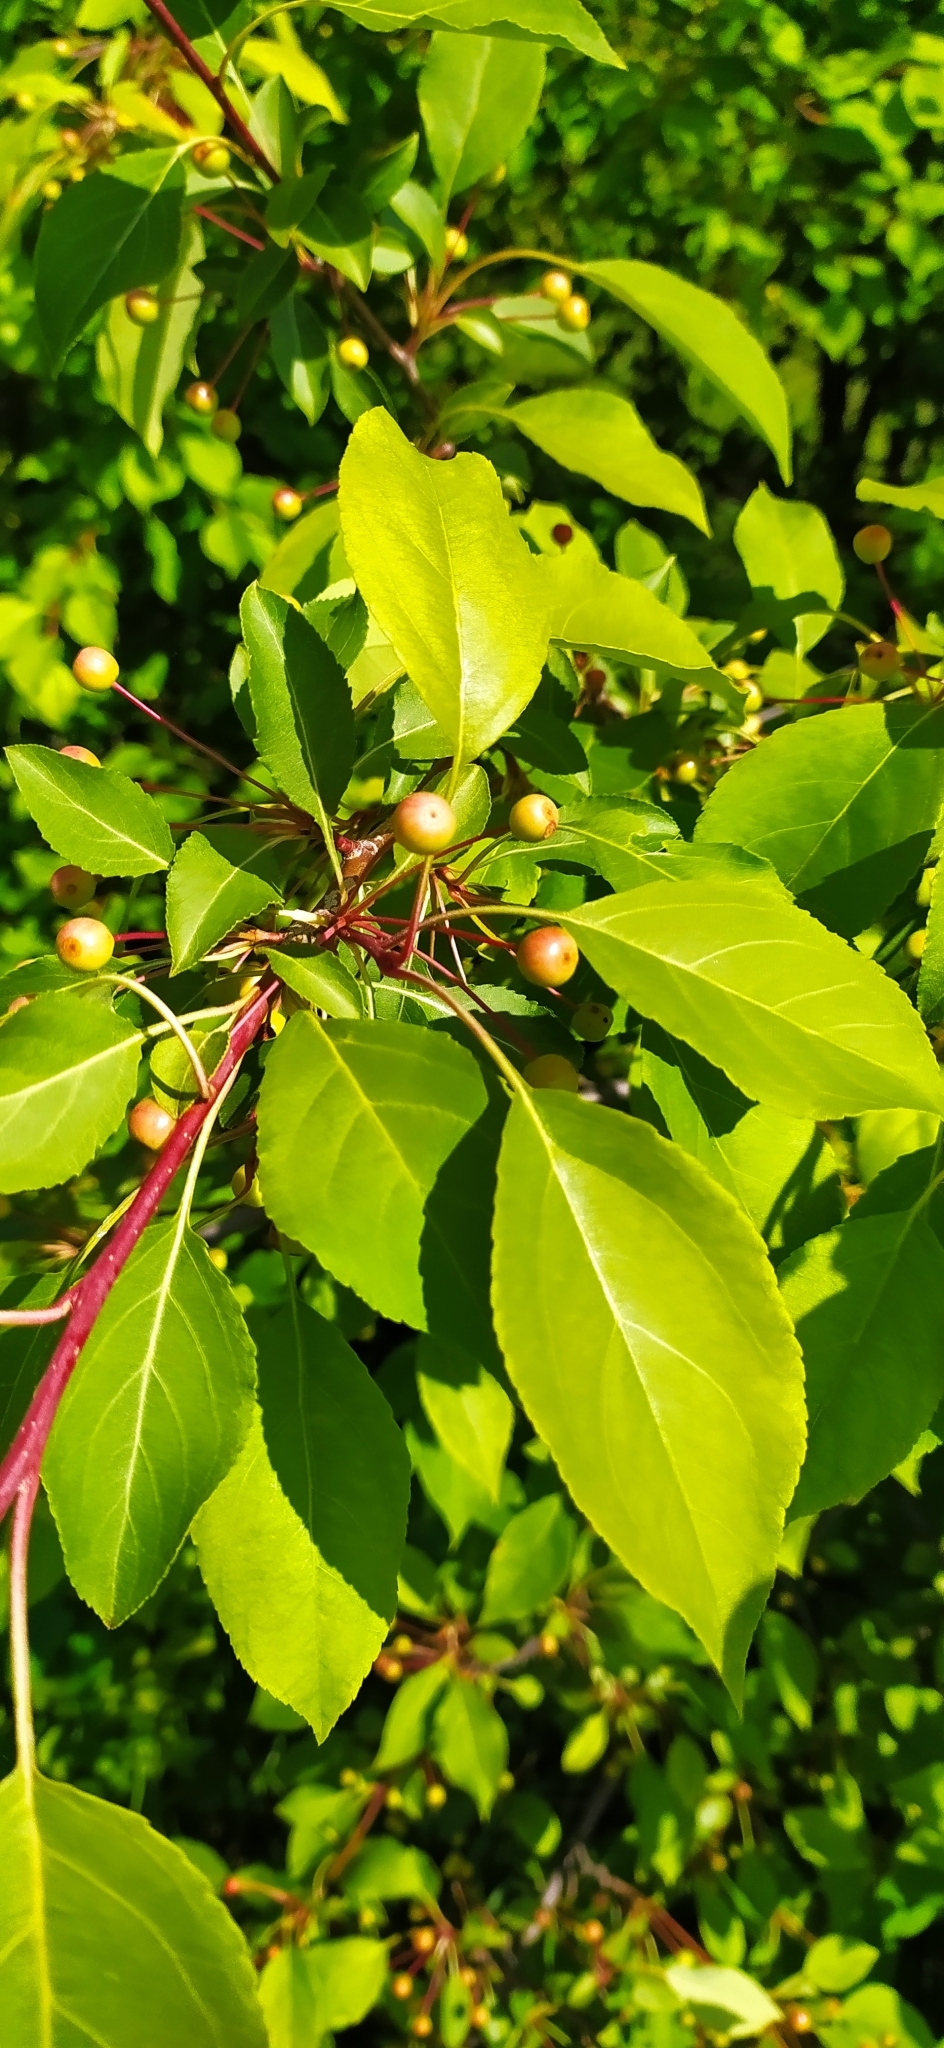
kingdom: Plantae
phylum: Tracheophyta
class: Magnoliopsida
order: Rosales
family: Rosaceae
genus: Malus
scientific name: Malus baccata
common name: Siberian crab
